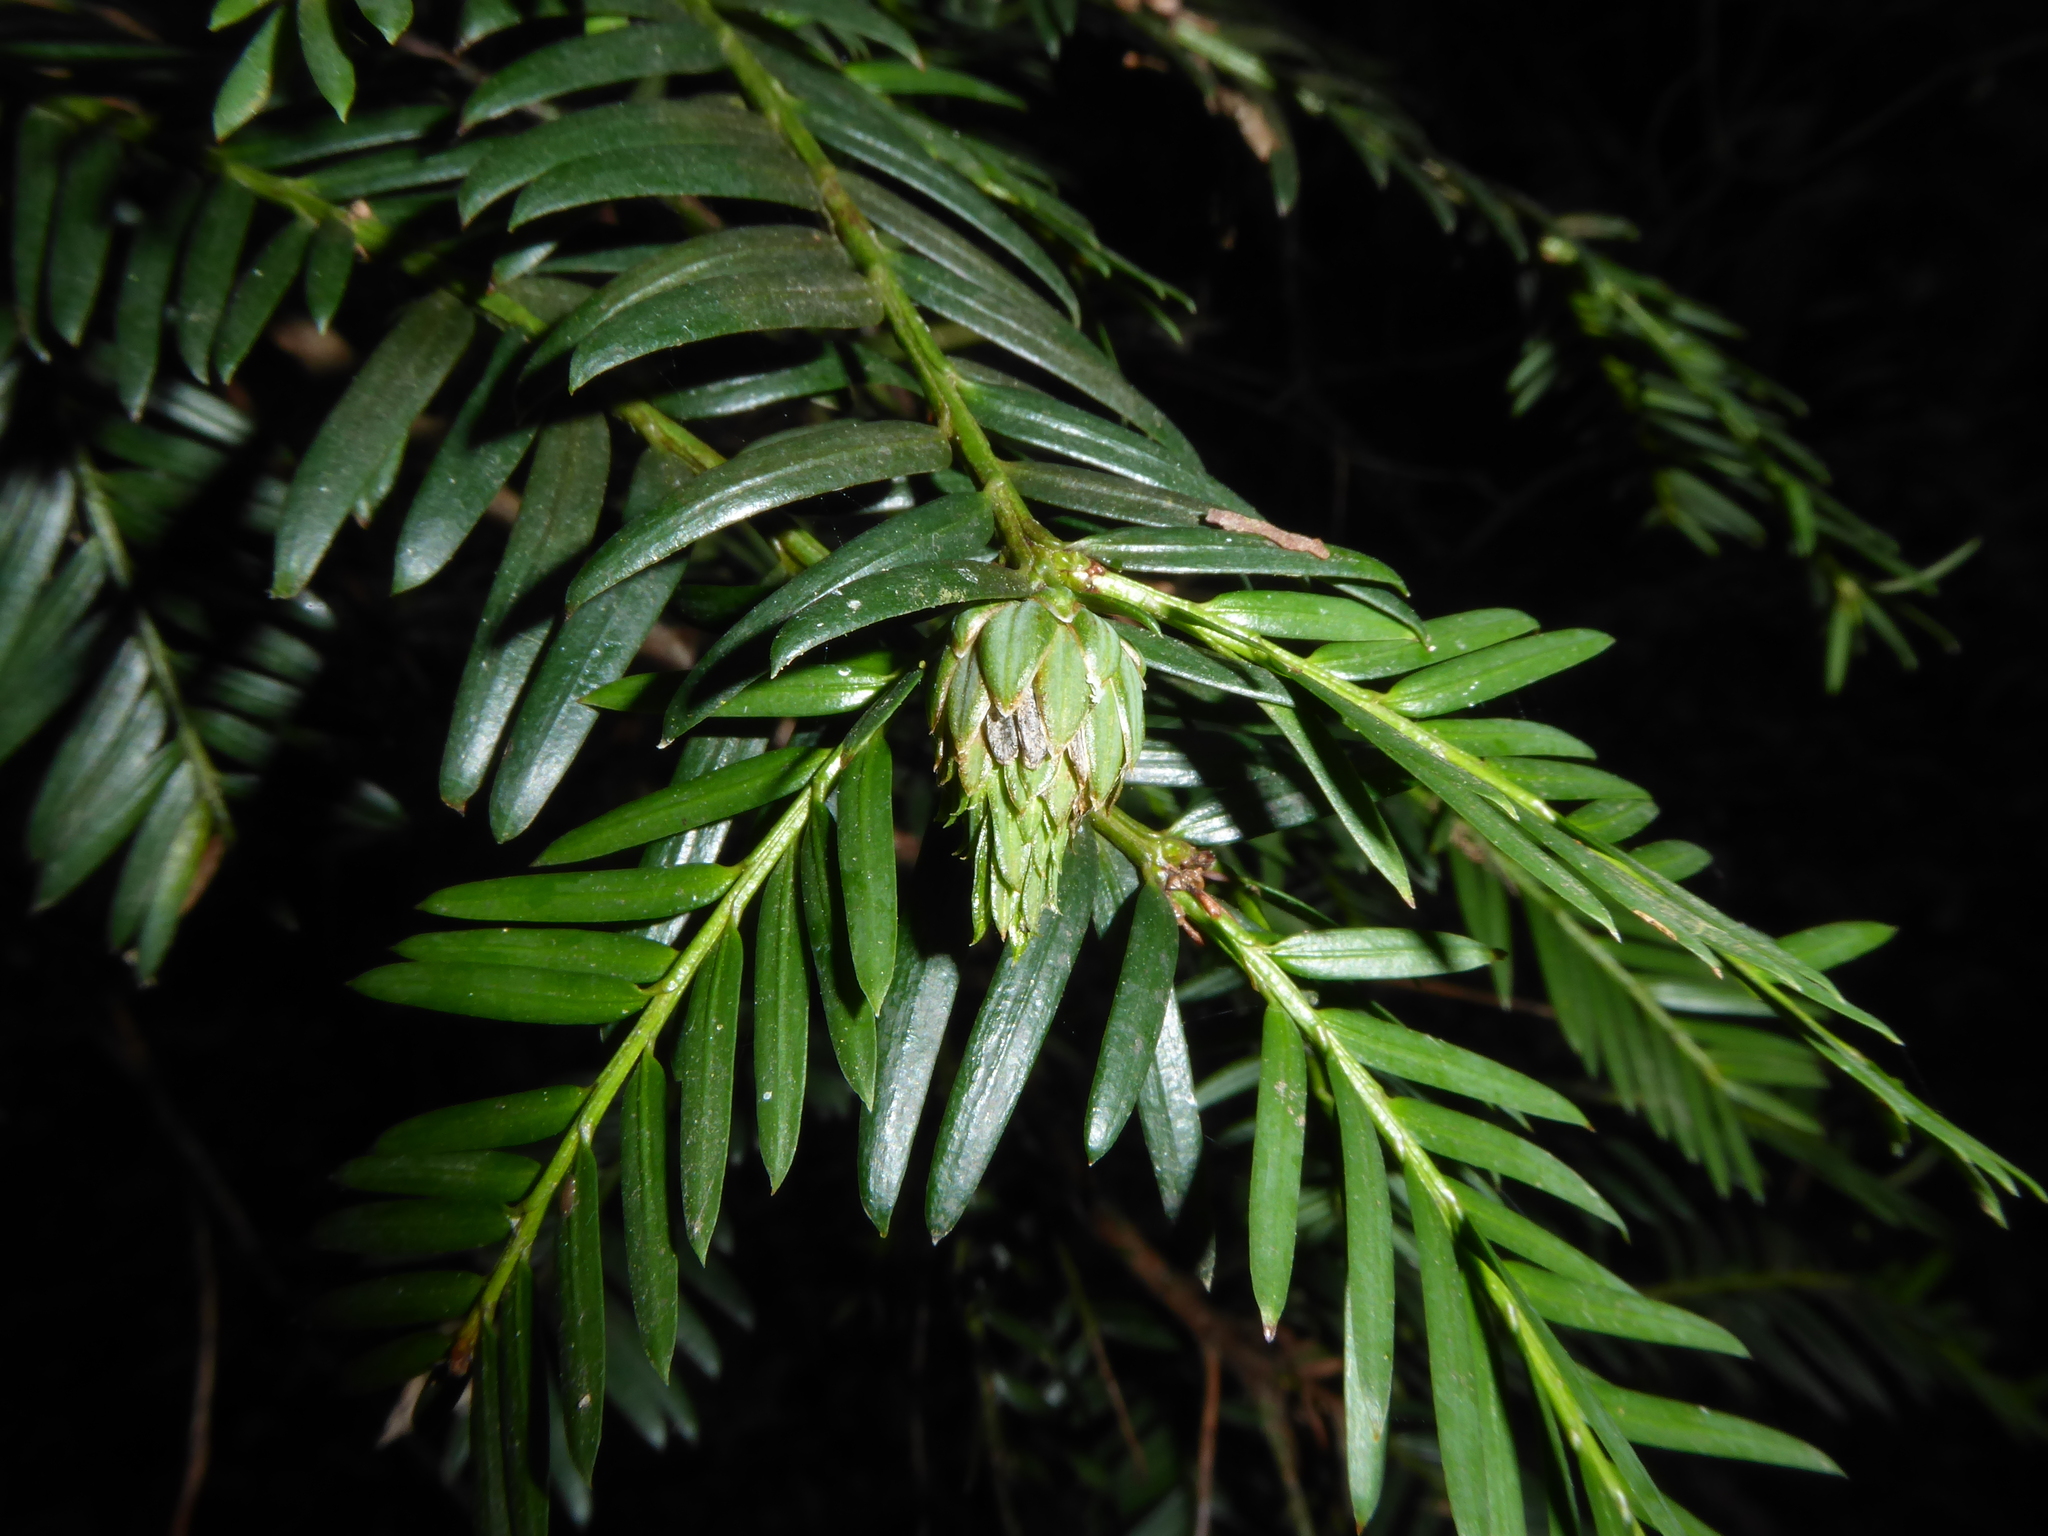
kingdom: Animalia
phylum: Arthropoda
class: Insecta
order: Diptera
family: Cecidomyiidae
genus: Taxomyia
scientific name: Taxomyia taxi
